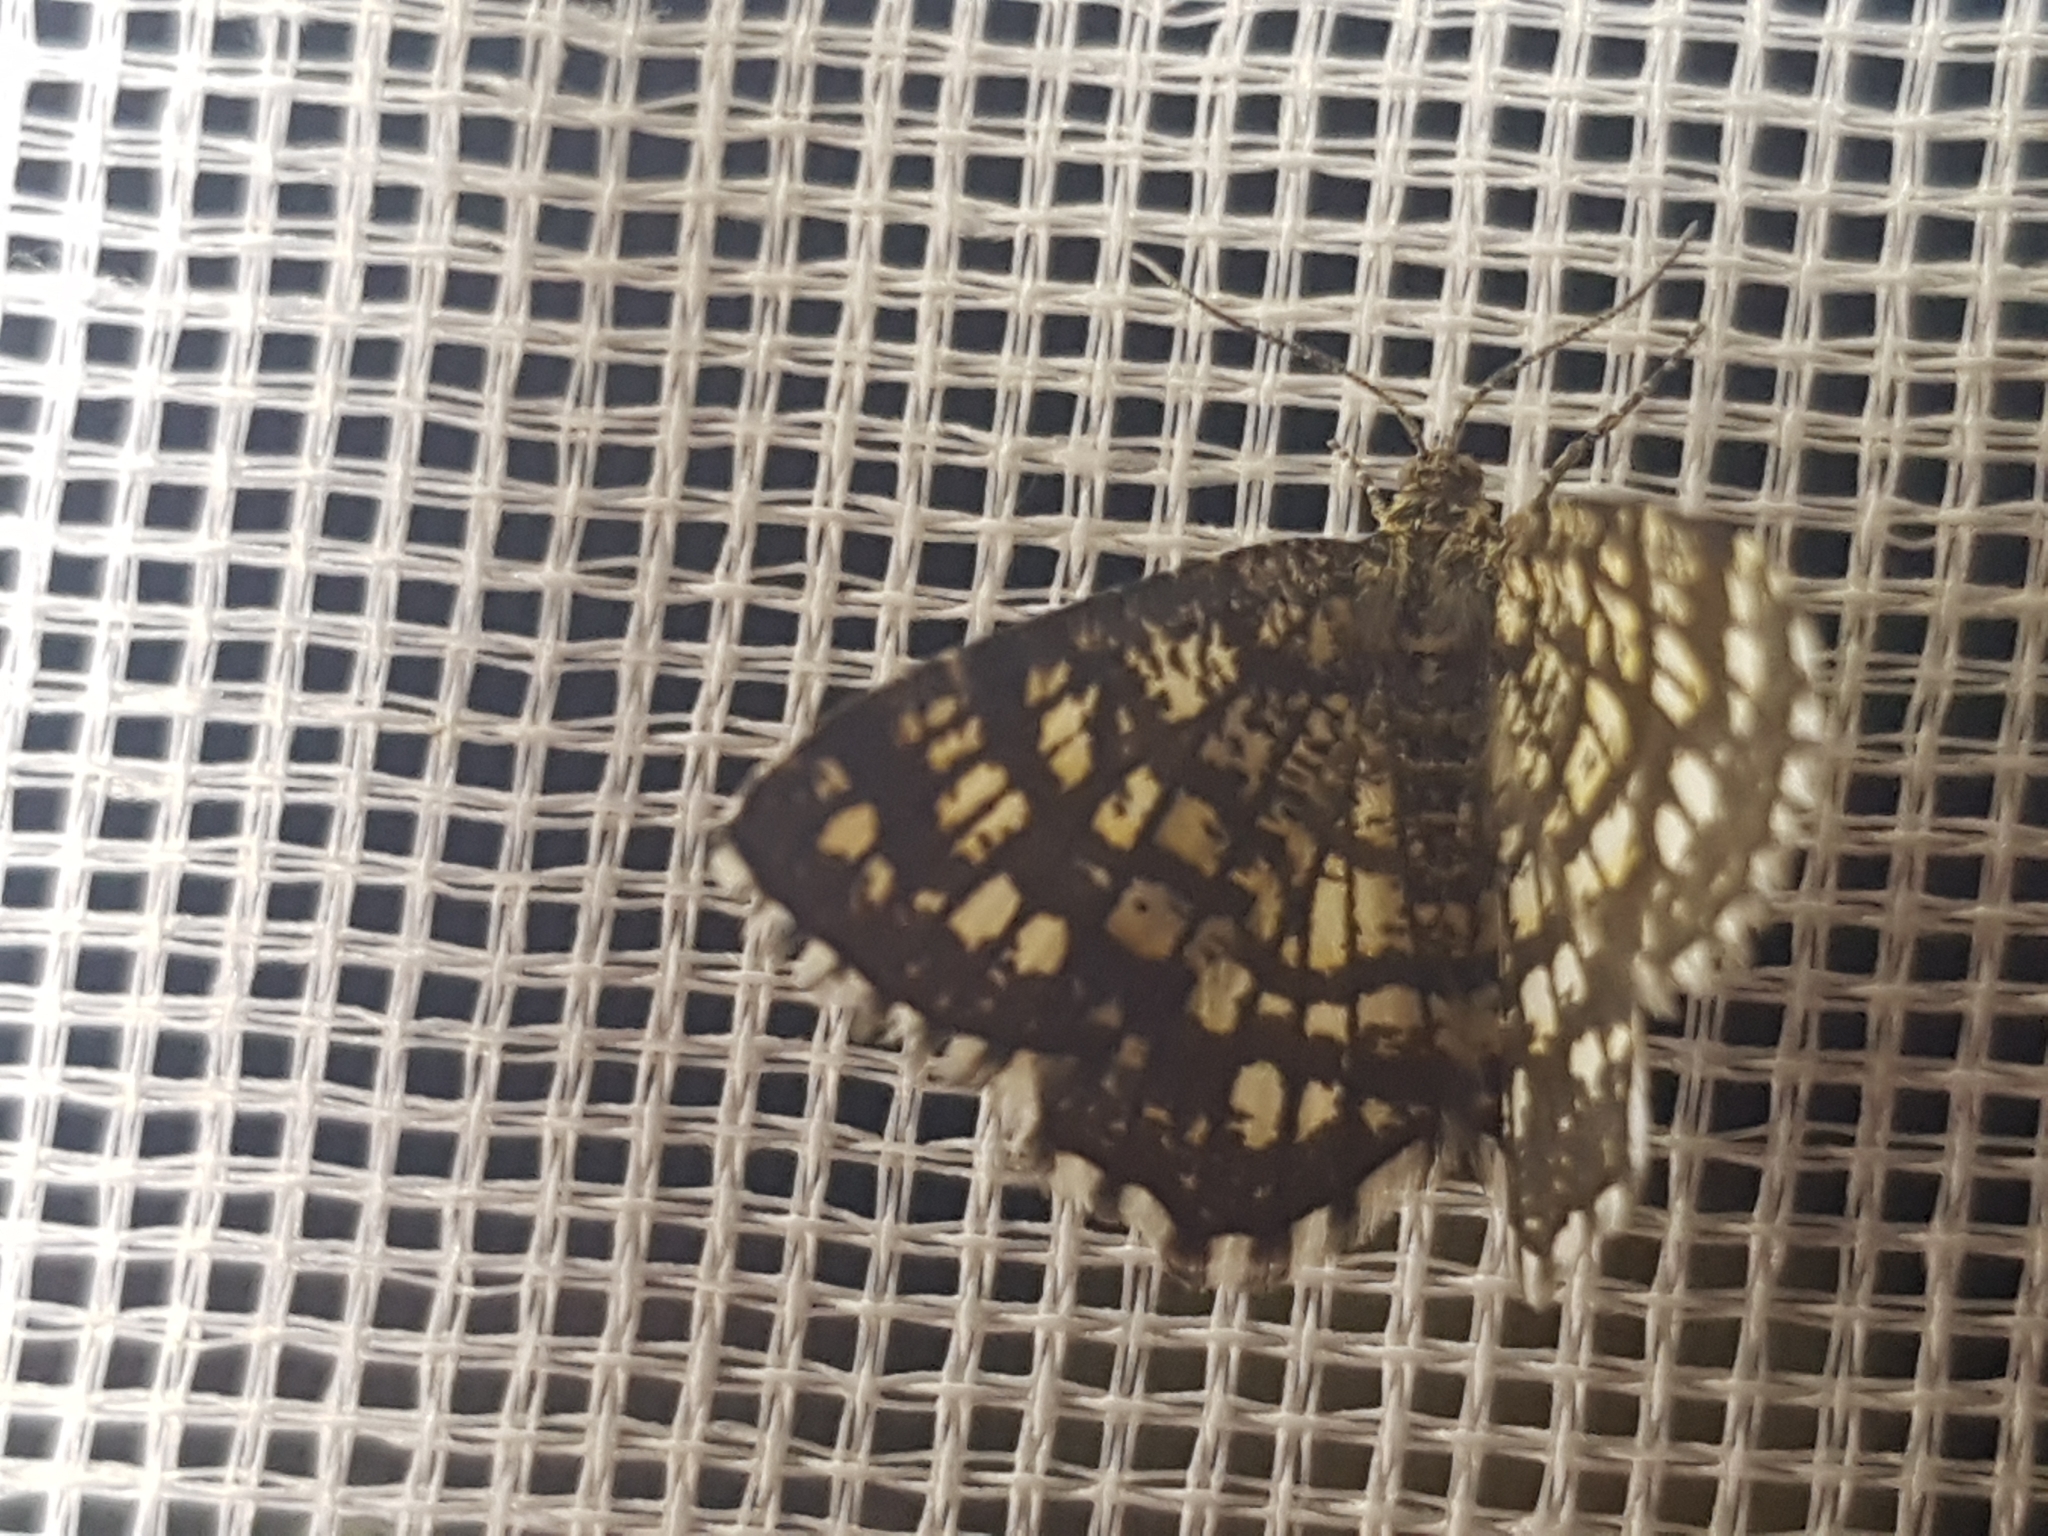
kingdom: Animalia
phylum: Arthropoda
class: Insecta
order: Lepidoptera
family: Geometridae
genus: Chiasmia
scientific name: Chiasmia clathrata
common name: Latticed heath
